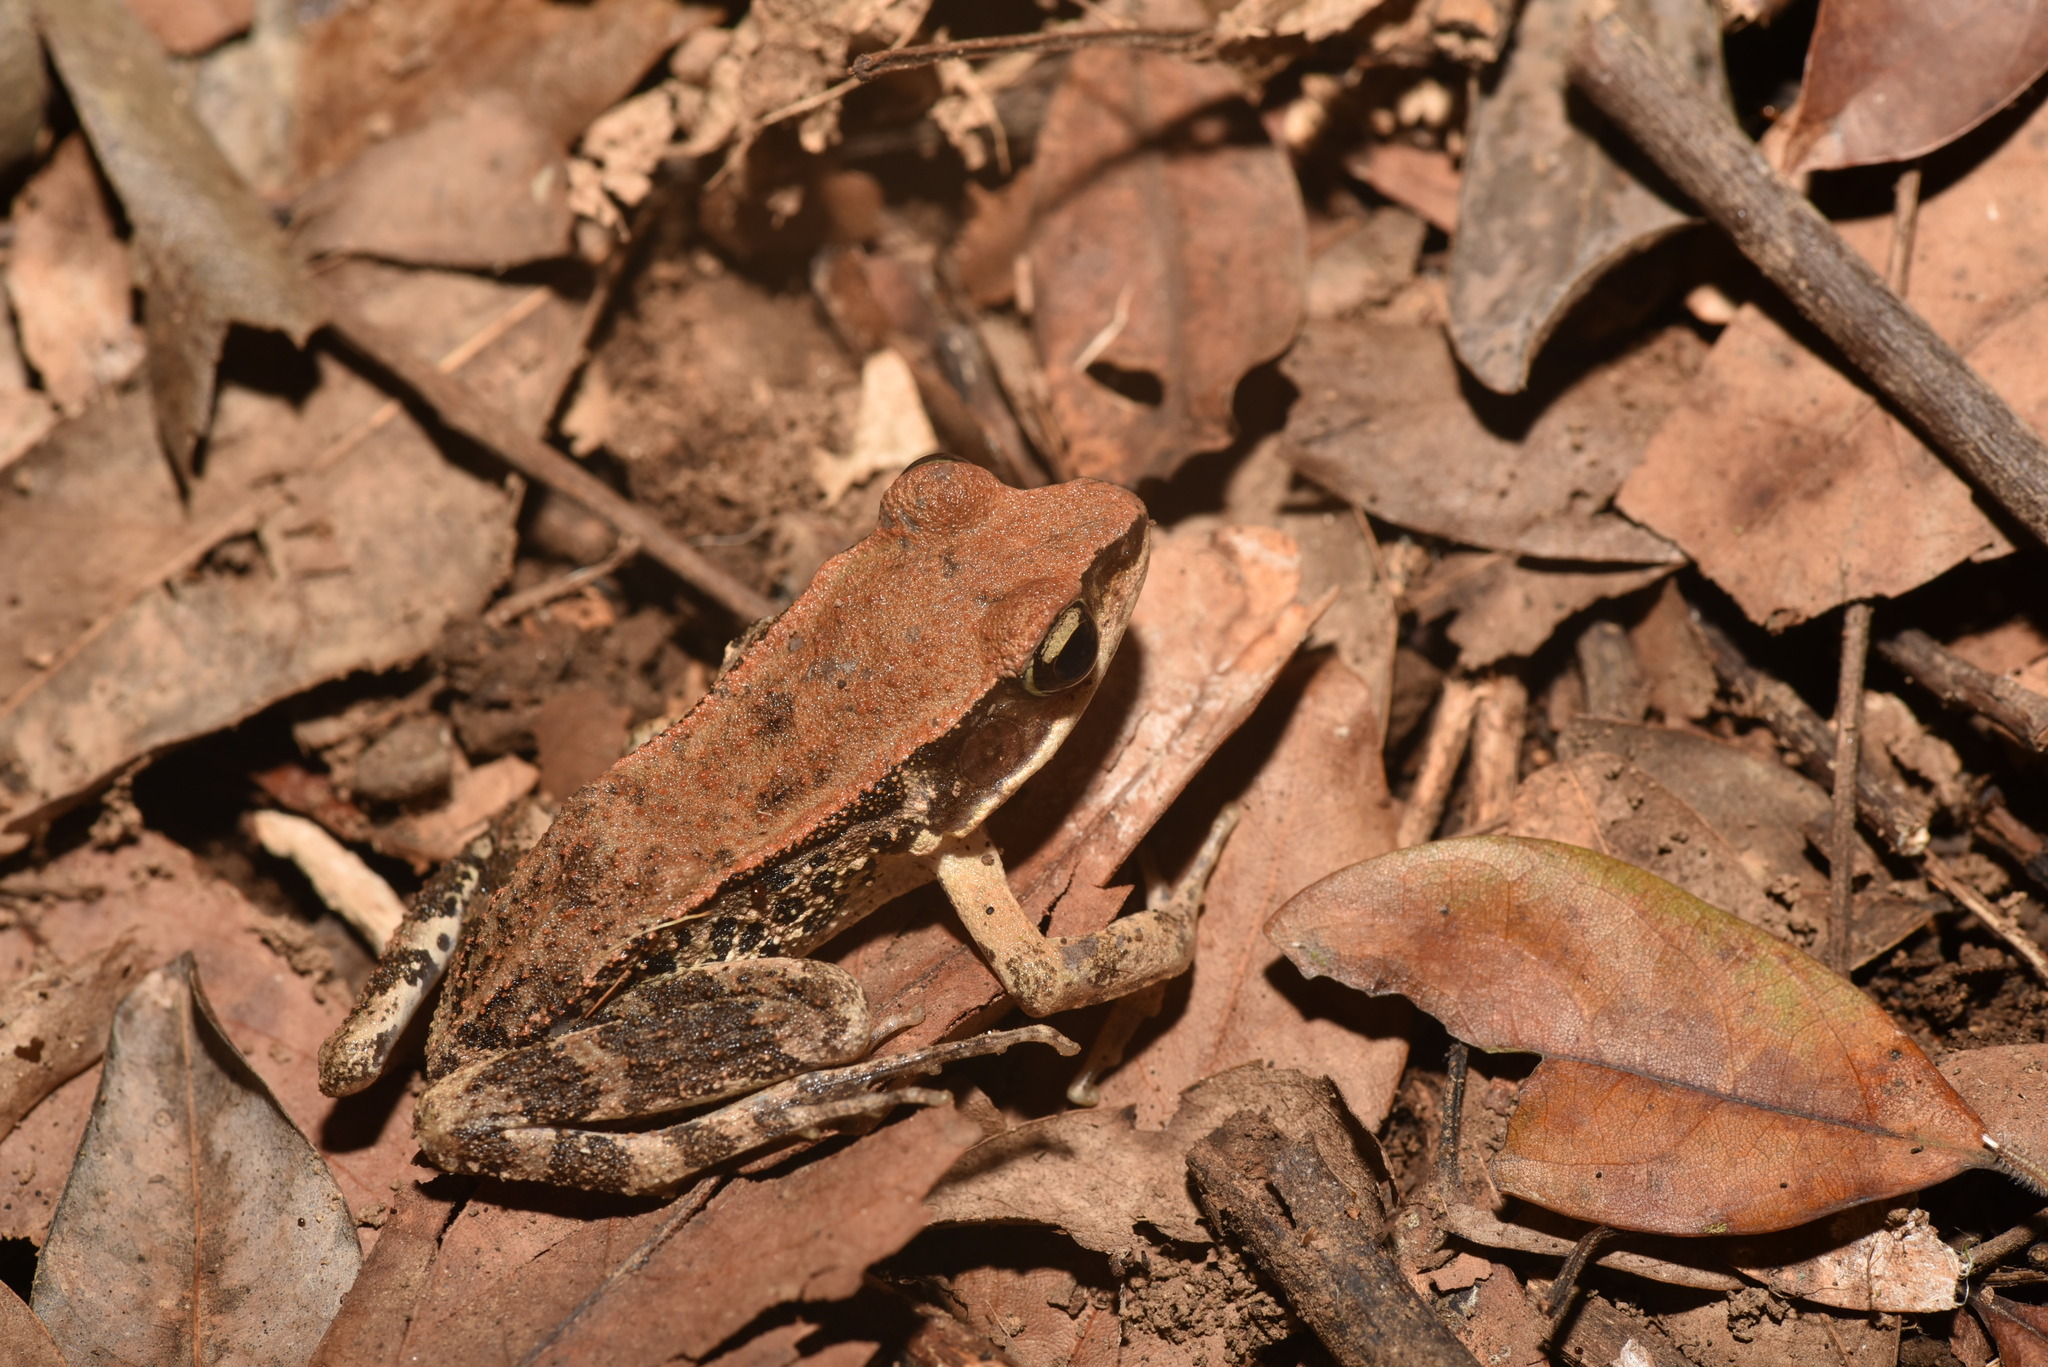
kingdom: Animalia
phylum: Chordata
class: Amphibia
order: Anura
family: Ranidae
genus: Hylarana
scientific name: Hylarana latouchii
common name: Broad-folded frog
